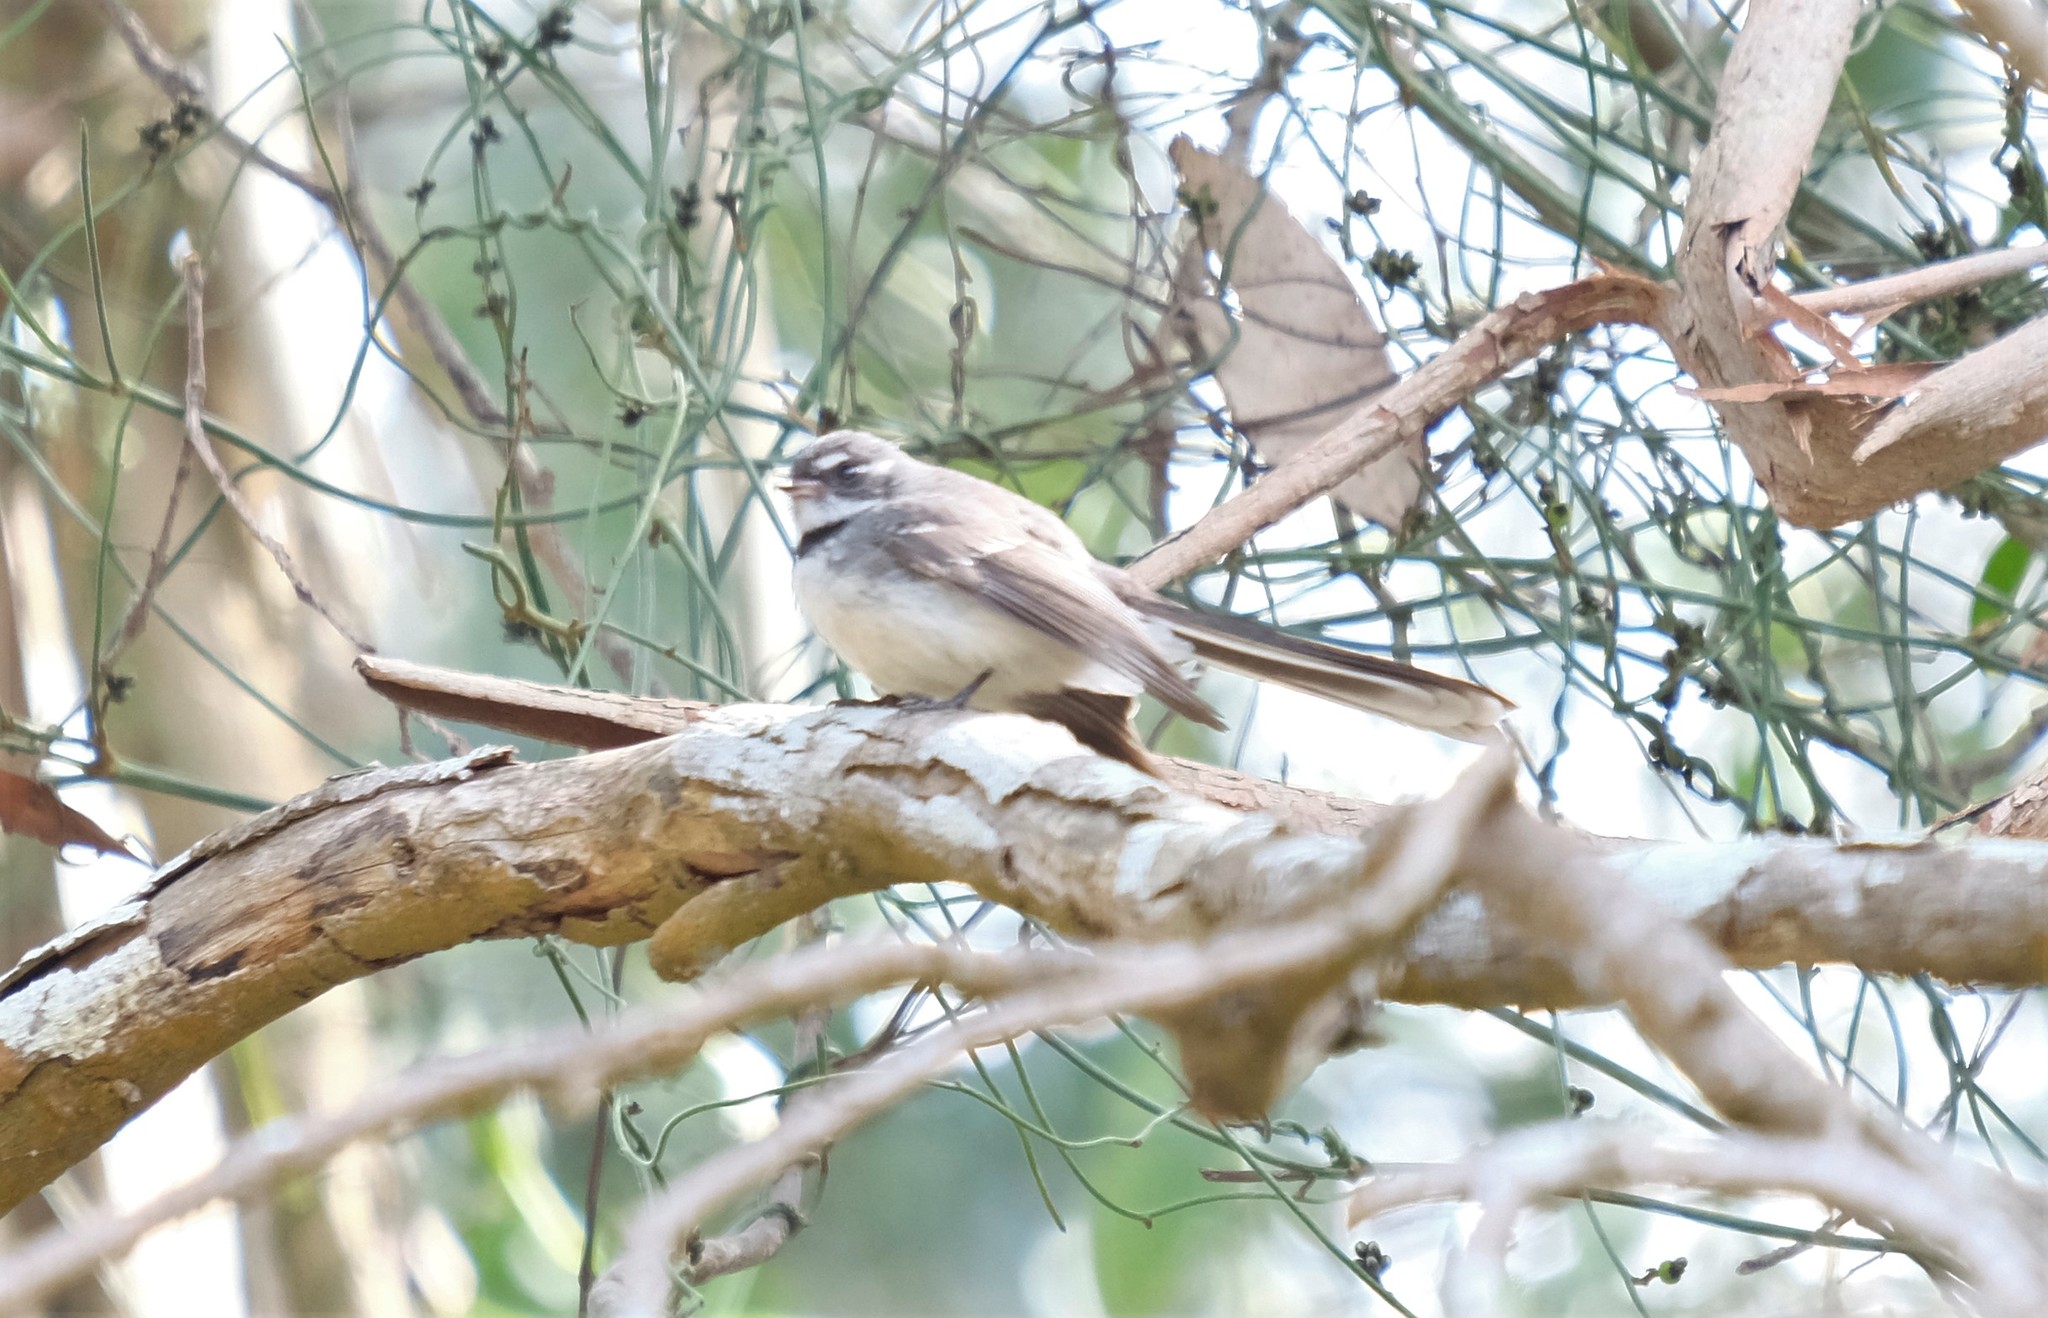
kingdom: Animalia
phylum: Chordata
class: Aves
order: Passeriformes
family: Rhipiduridae
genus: Rhipidura
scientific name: Rhipidura albiscapa
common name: Grey fantail
